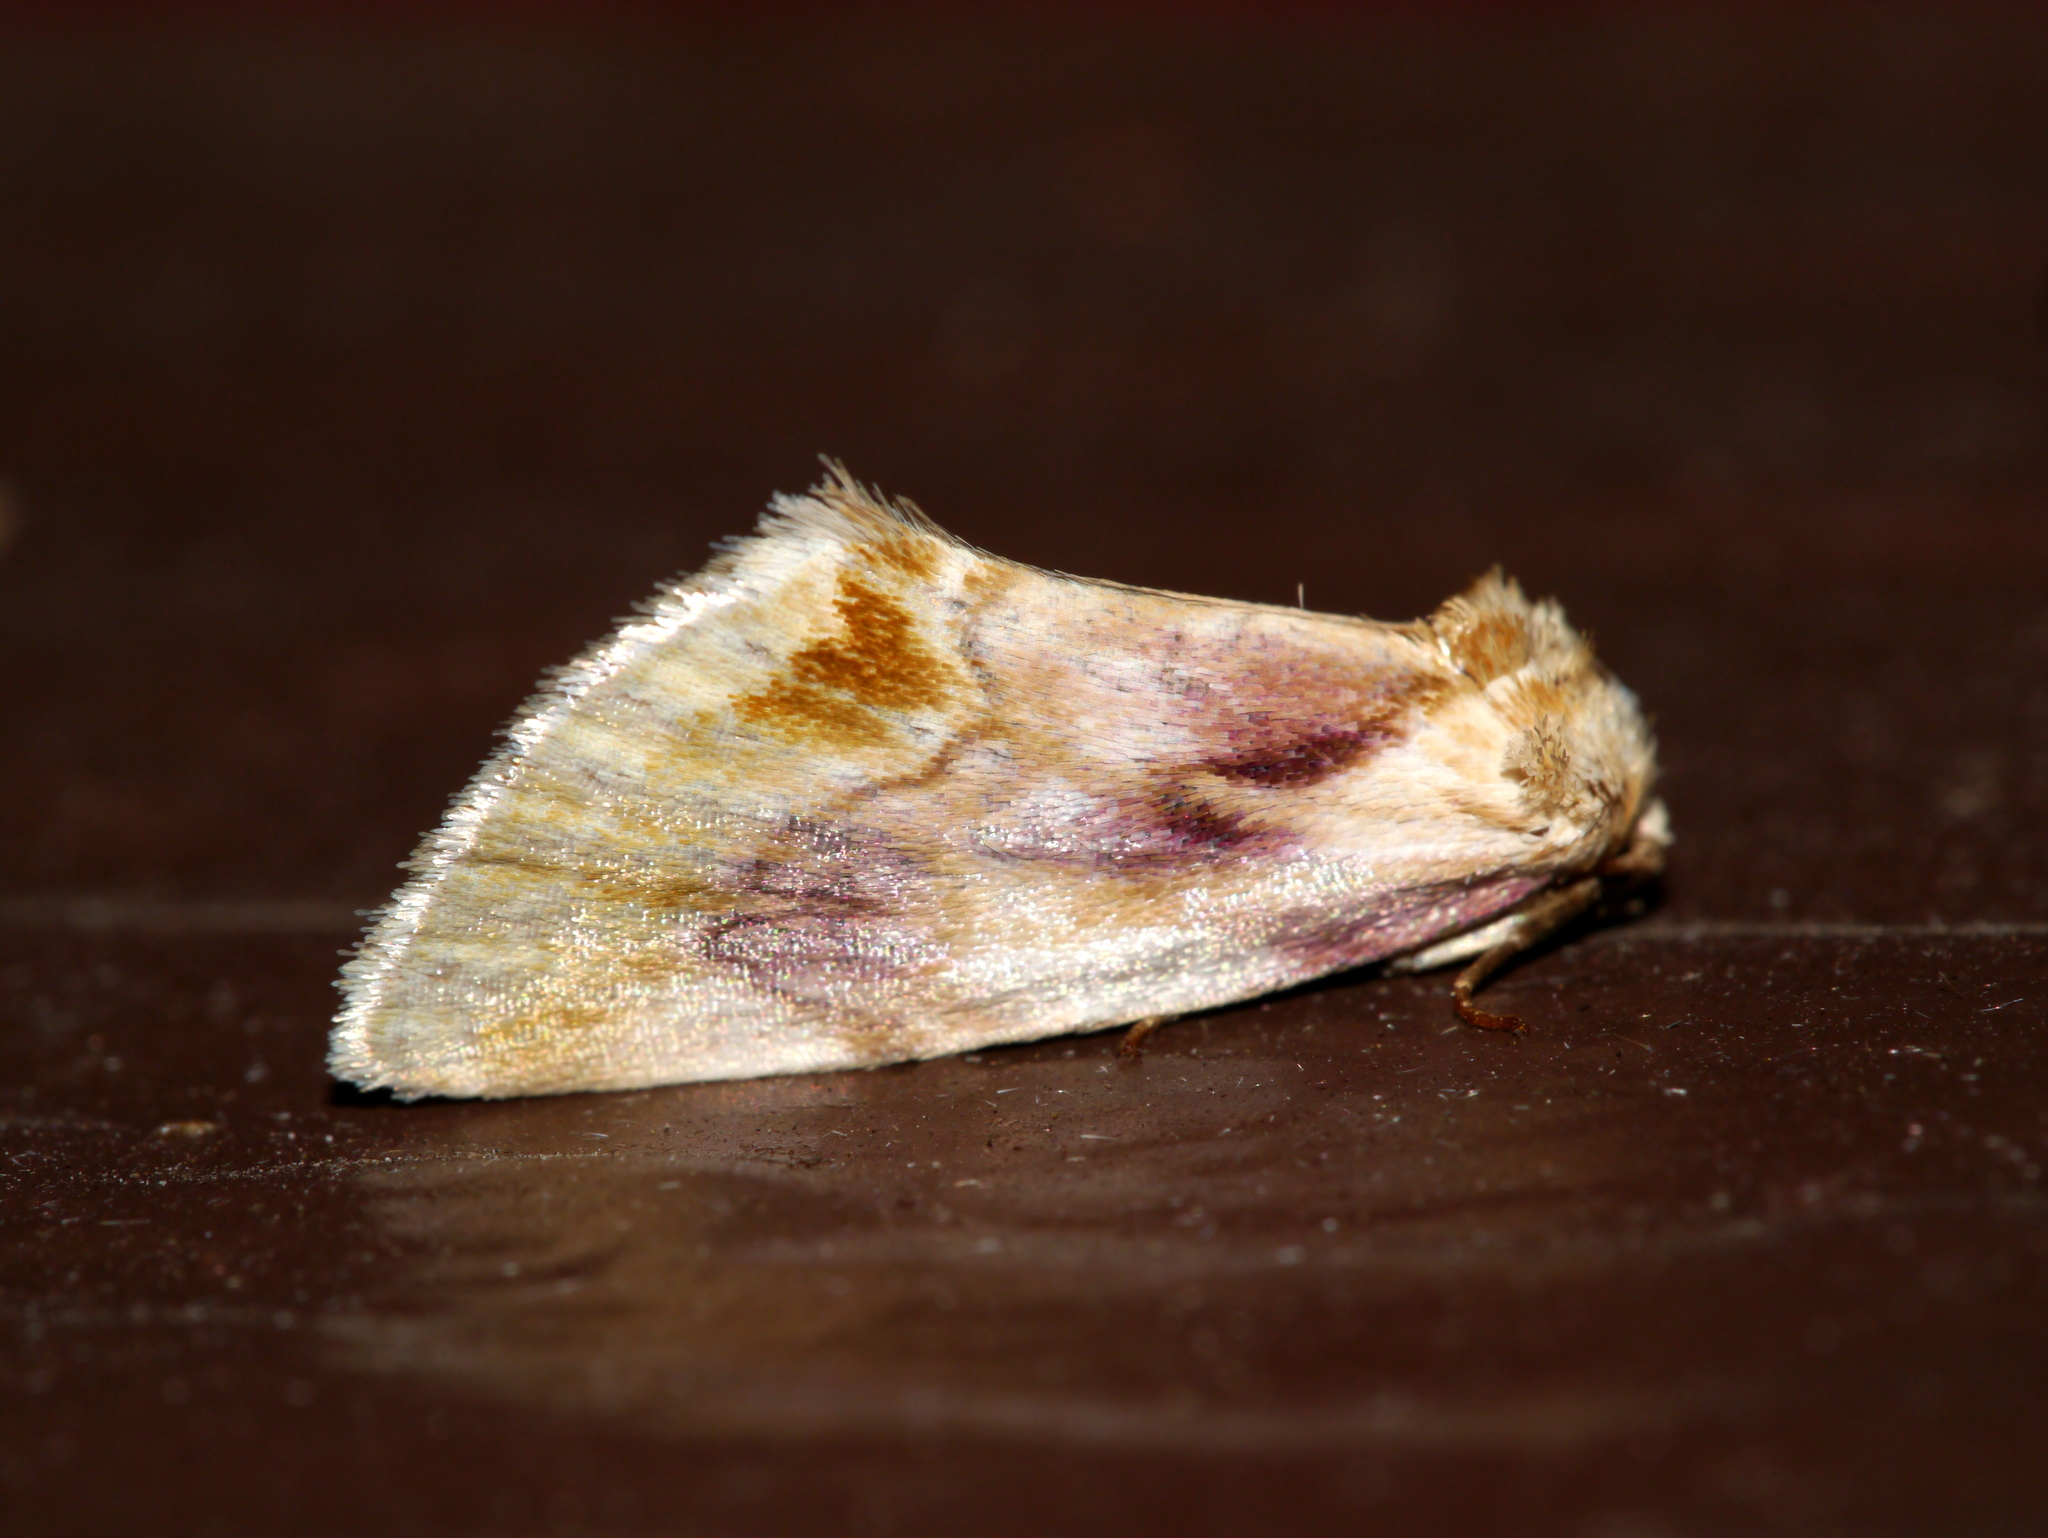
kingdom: Animalia
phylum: Arthropoda
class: Insecta
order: Lepidoptera
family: Noctuidae
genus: Chamaeclea
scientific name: Chamaeclea pernana
